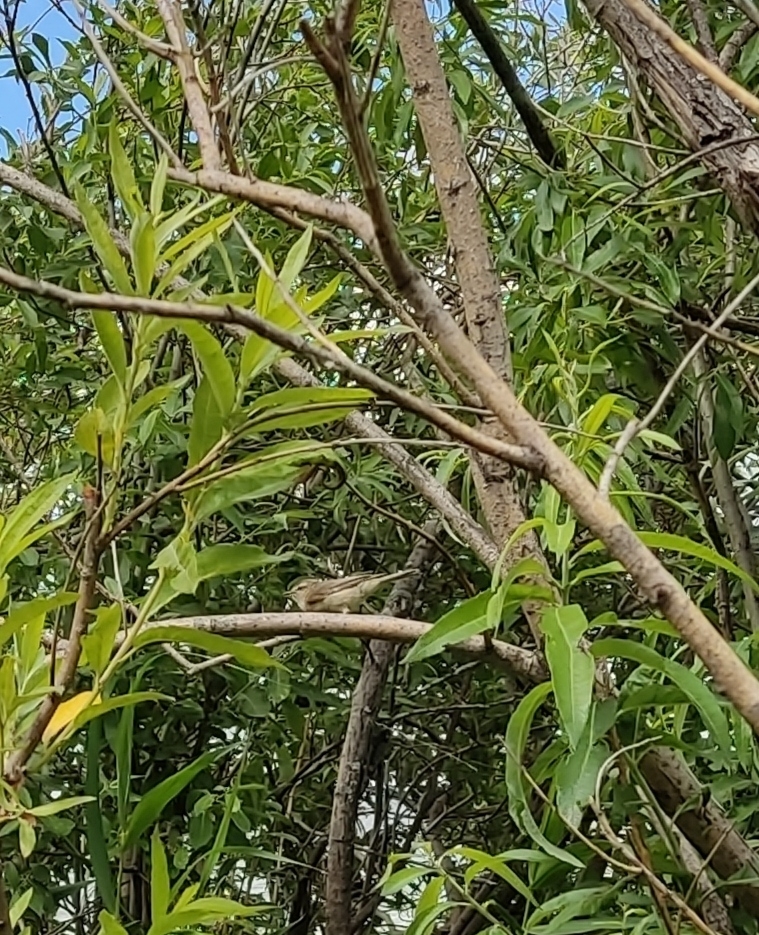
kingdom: Animalia
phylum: Chordata
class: Aves
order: Passeriformes
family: Phylloscopidae
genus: Phylloscopus
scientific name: Phylloscopus collybita
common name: Common chiffchaff
